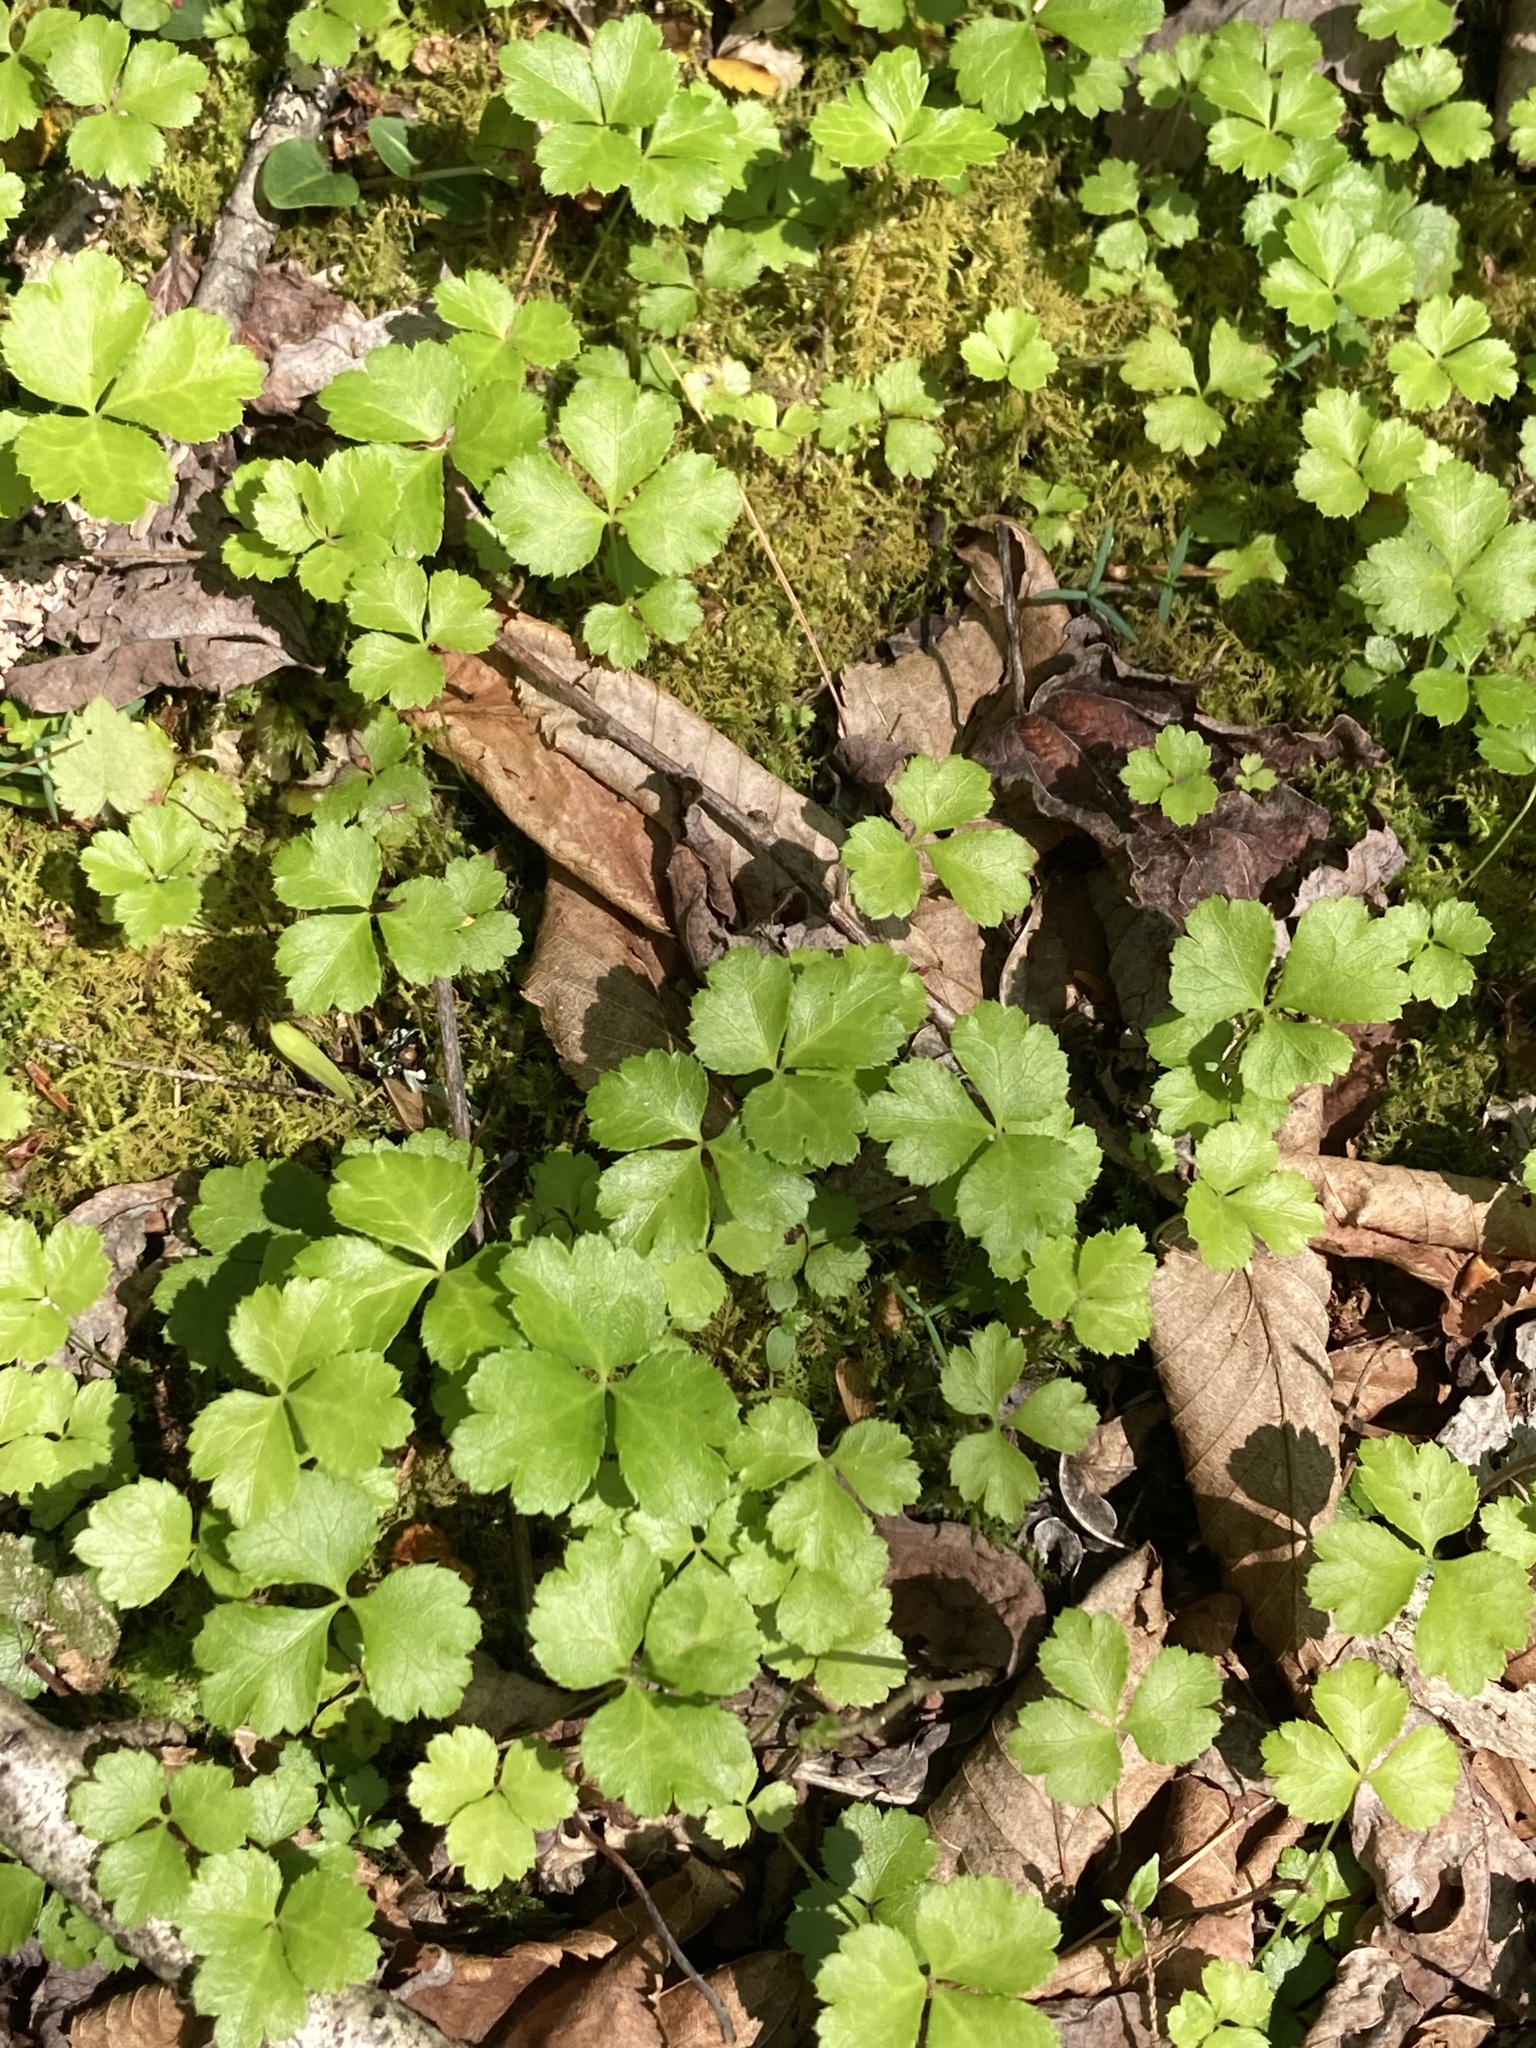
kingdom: Plantae
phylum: Tracheophyta
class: Magnoliopsida
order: Ranunculales
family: Ranunculaceae
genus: Coptis
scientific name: Coptis trifolia
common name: Canker-root
